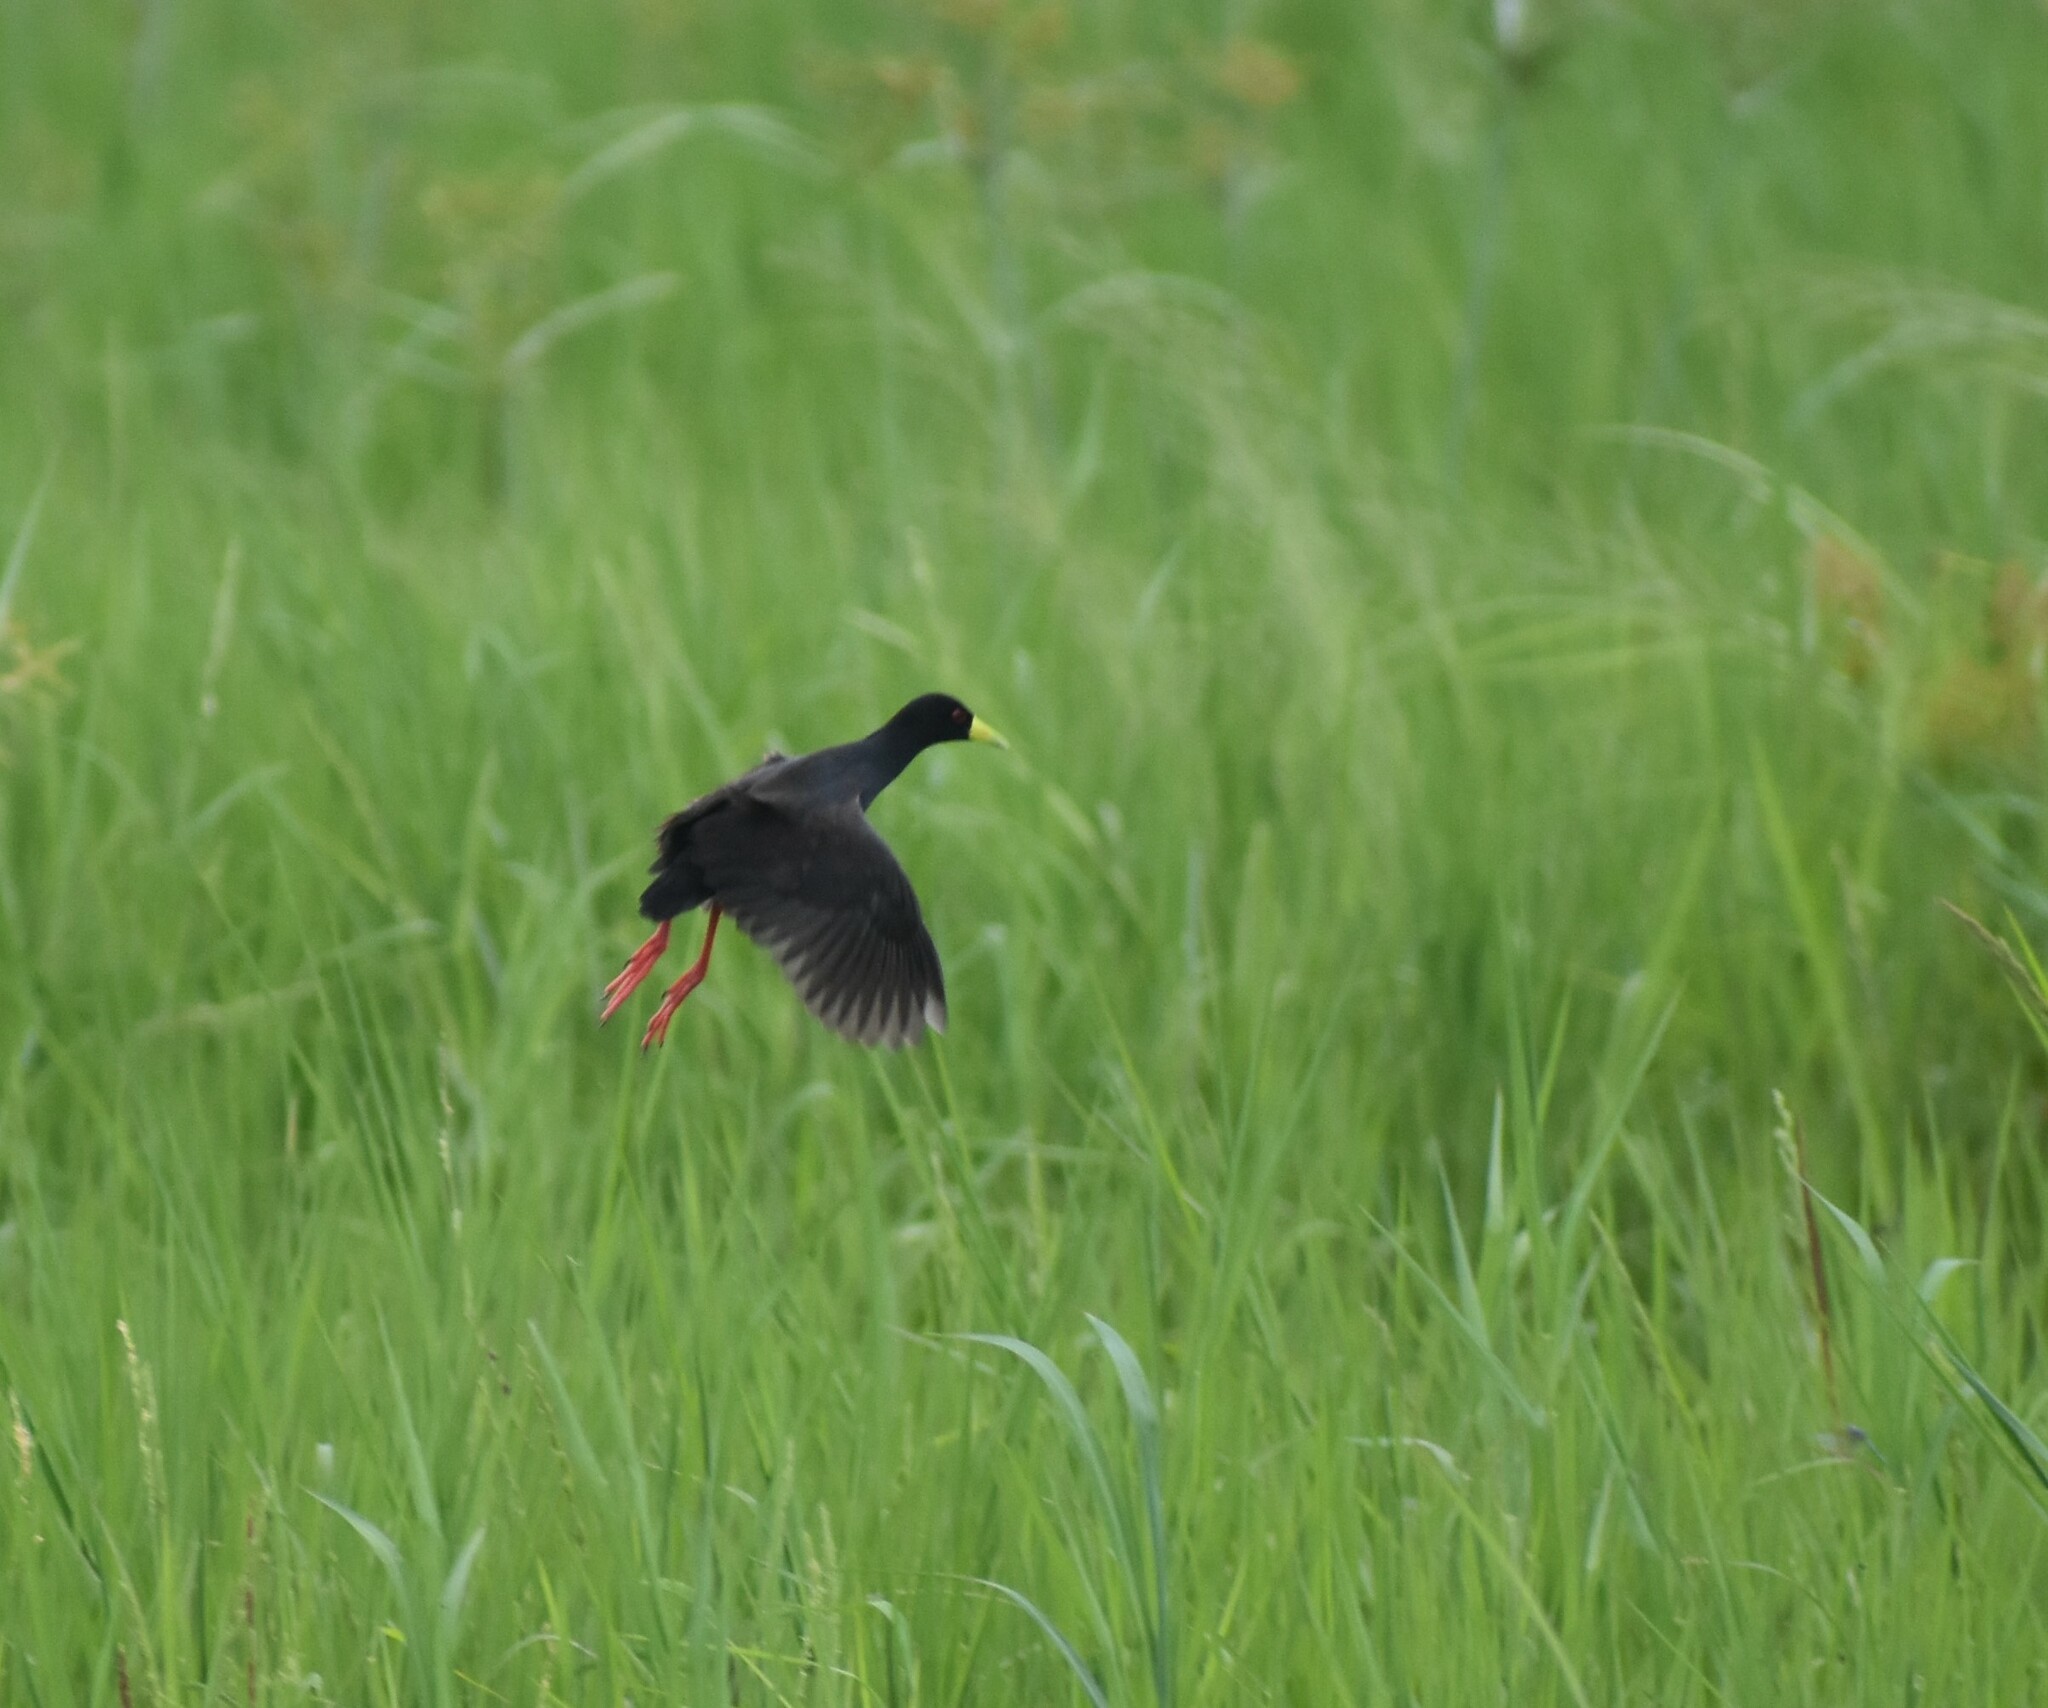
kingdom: Animalia
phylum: Chordata
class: Aves
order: Gruiformes
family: Rallidae
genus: Amaurornis
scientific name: Amaurornis flavirostra
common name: Black crake
